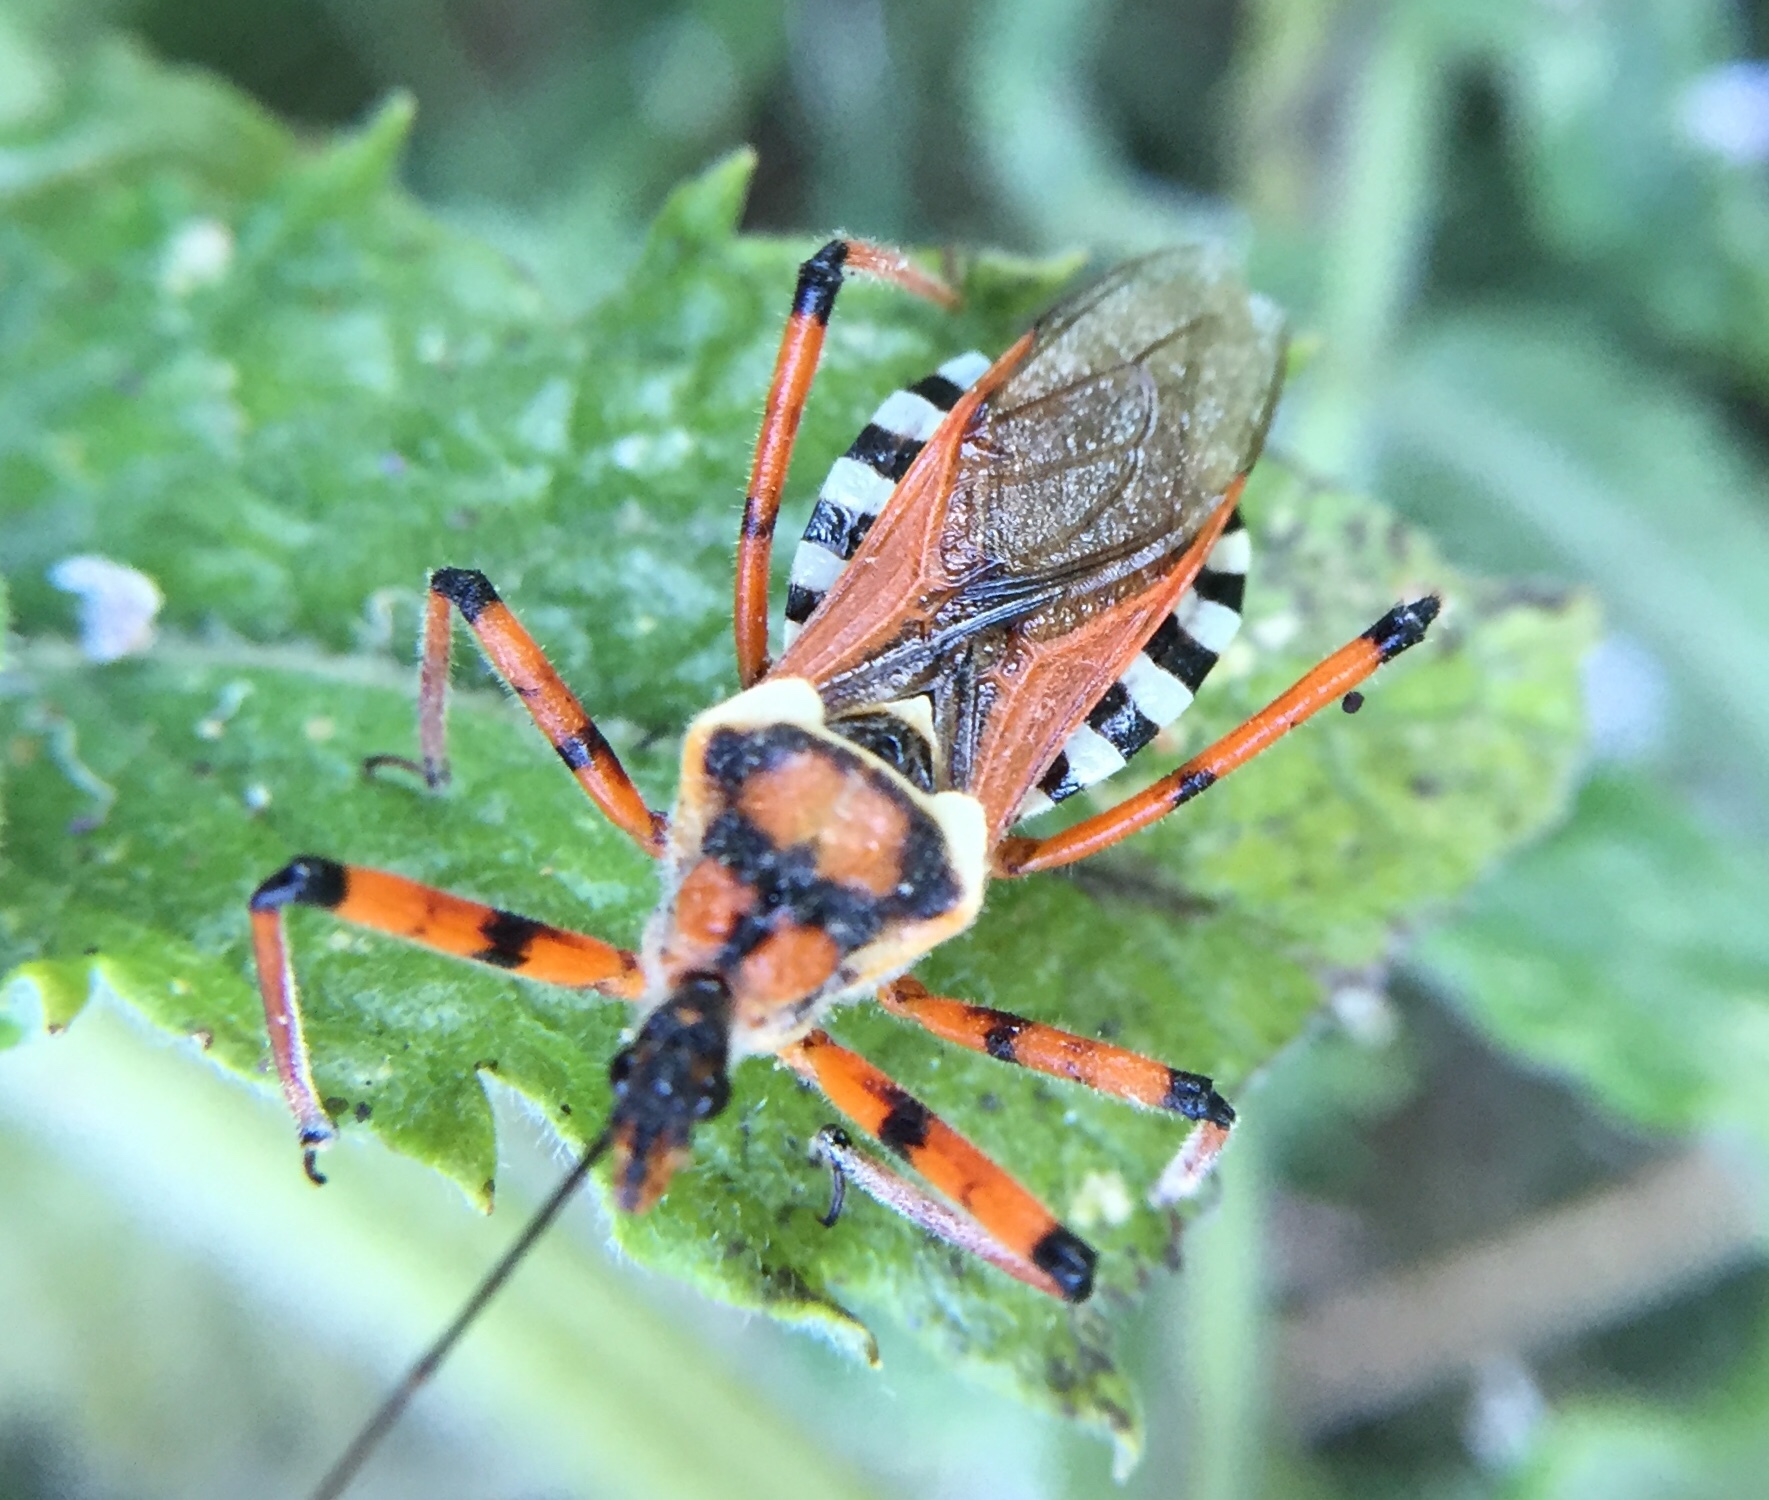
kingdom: Animalia
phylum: Arthropoda
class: Insecta
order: Hemiptera
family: Reduviidae
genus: Rhynocoris
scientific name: Rhynocoris punctiventris
